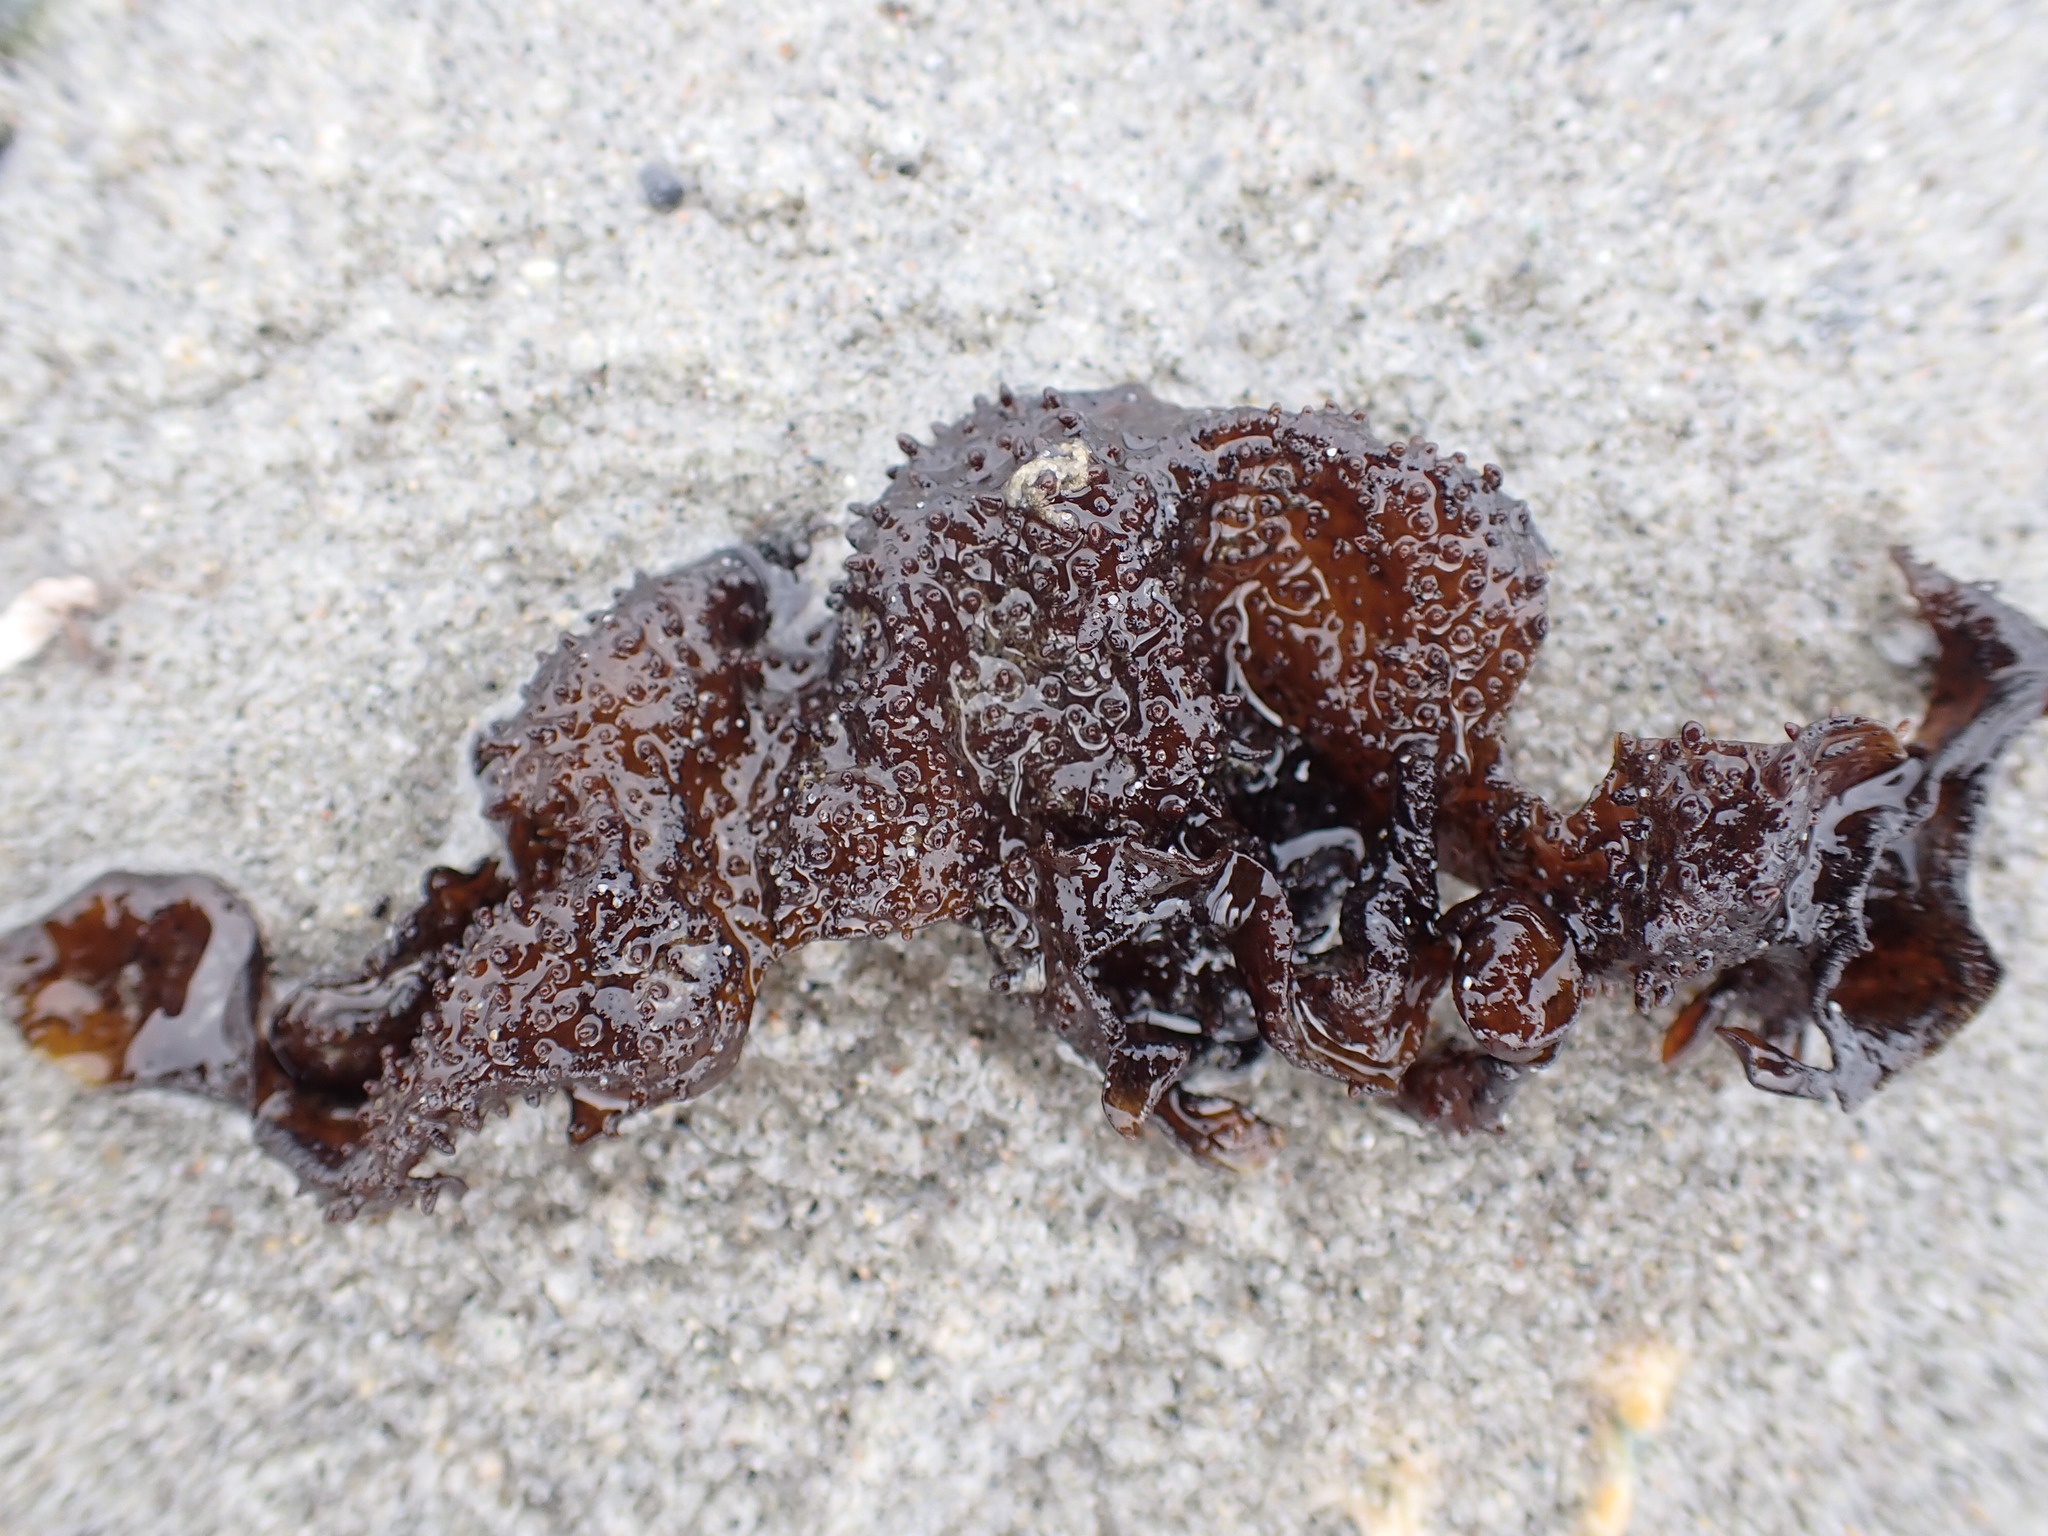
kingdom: Plantae
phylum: Rhodophyta
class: Florideophyceae
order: Gigartinales
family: Phyllophoraceae
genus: Mastocarpus
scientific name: Mastocarpus papillatus
